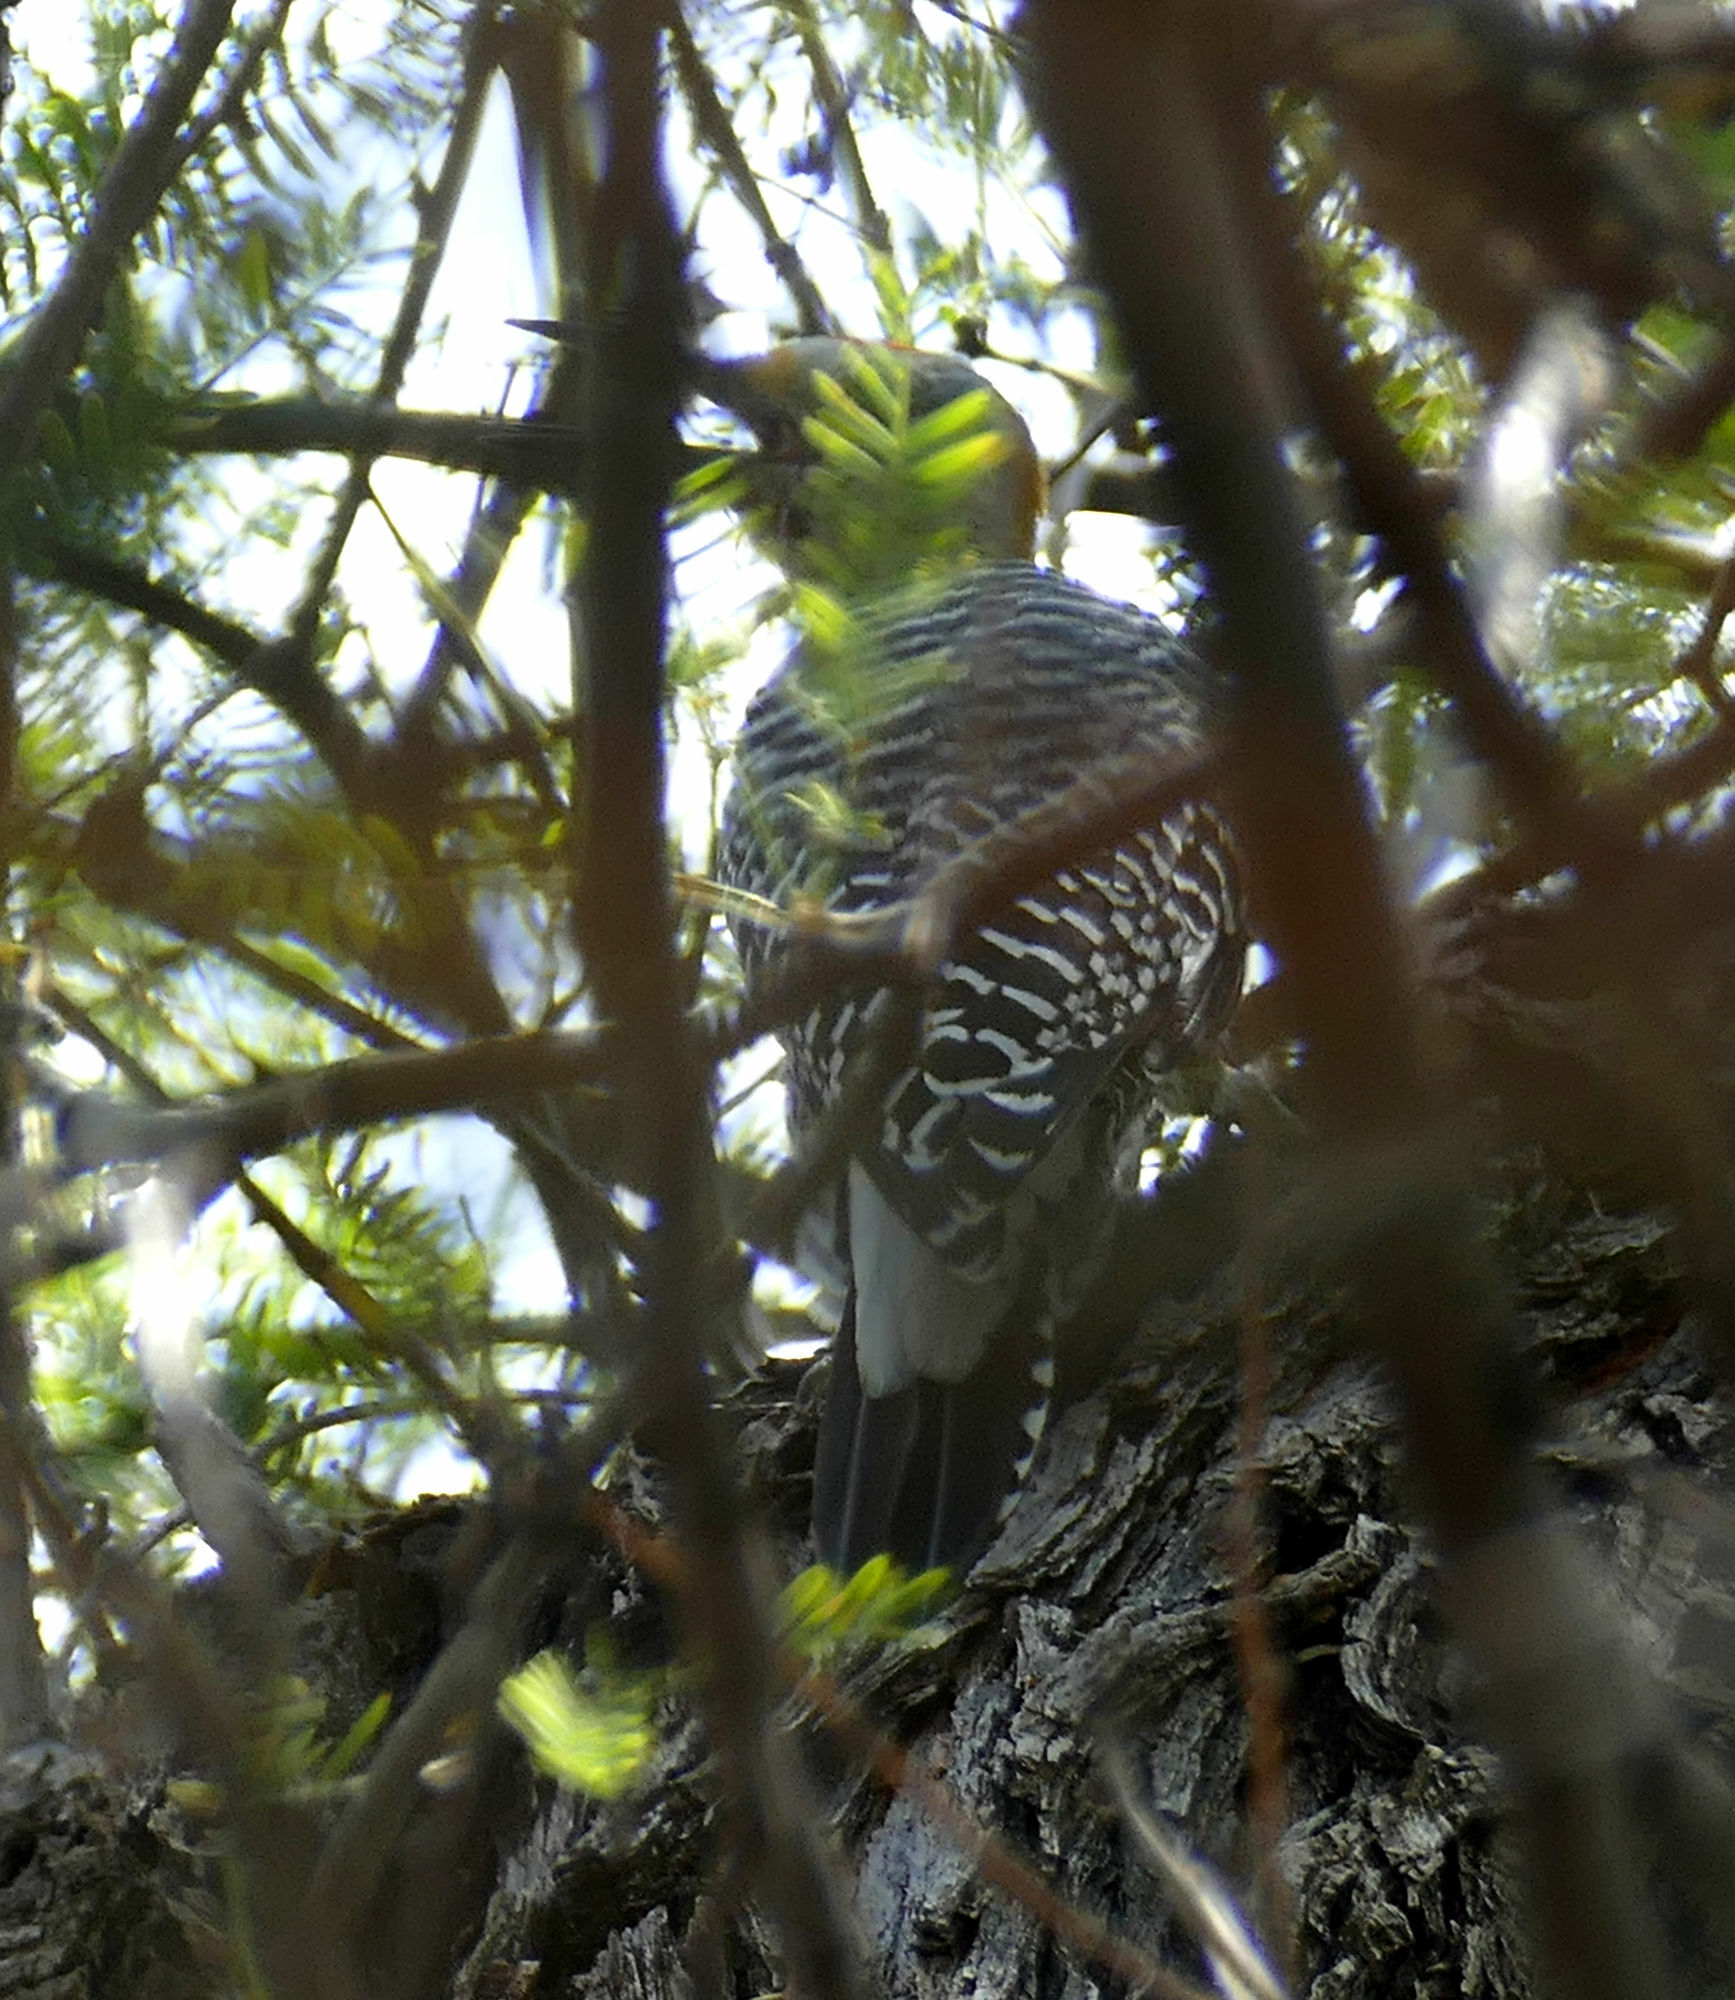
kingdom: Animalia
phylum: Chordata
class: Aves
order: Piciformes
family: Picidae
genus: Melanerpes
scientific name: Melanerpes aurifrons
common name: Golden-fronted woodpecker
